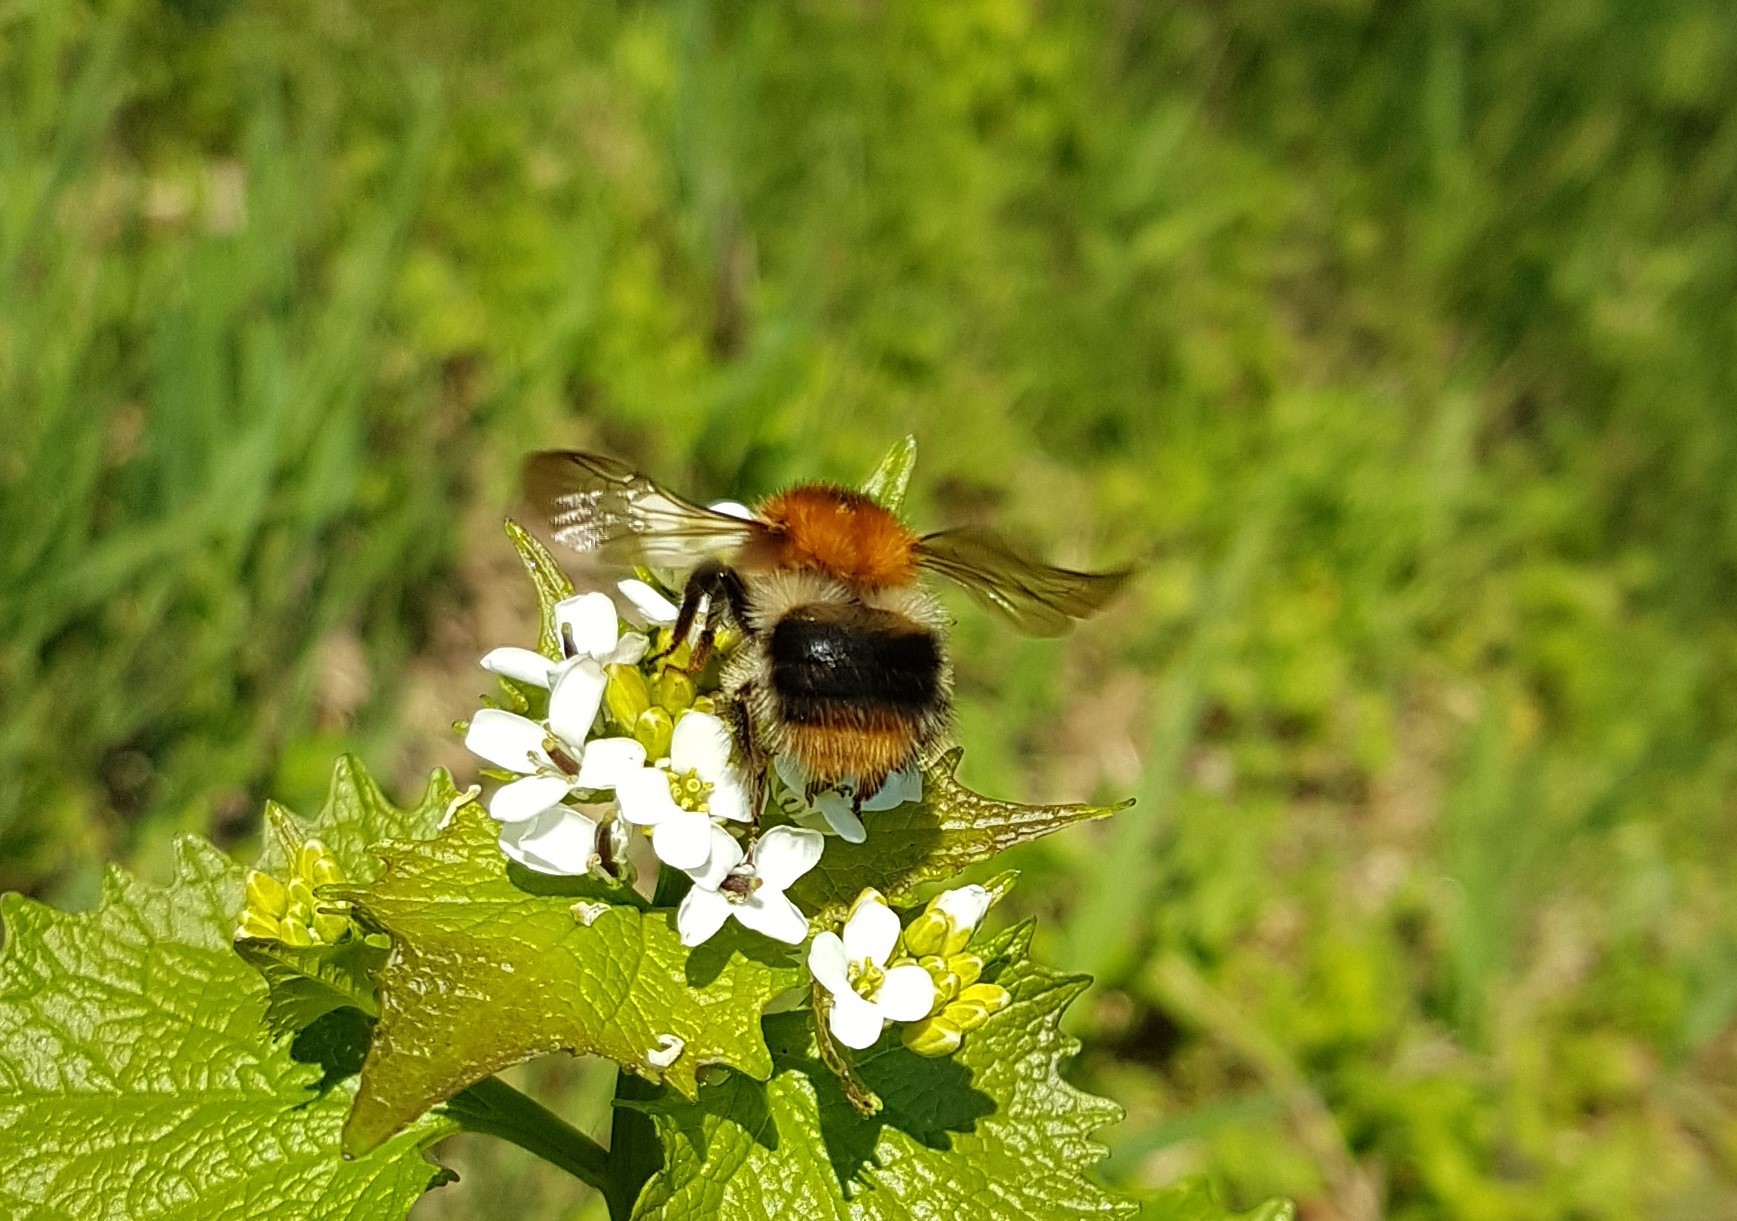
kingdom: Animalia
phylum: Arthropoda
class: Insecta
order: Hymenoptera
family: Apidae
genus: Bombus
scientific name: Bombus pascuorum
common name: Common carder bee
